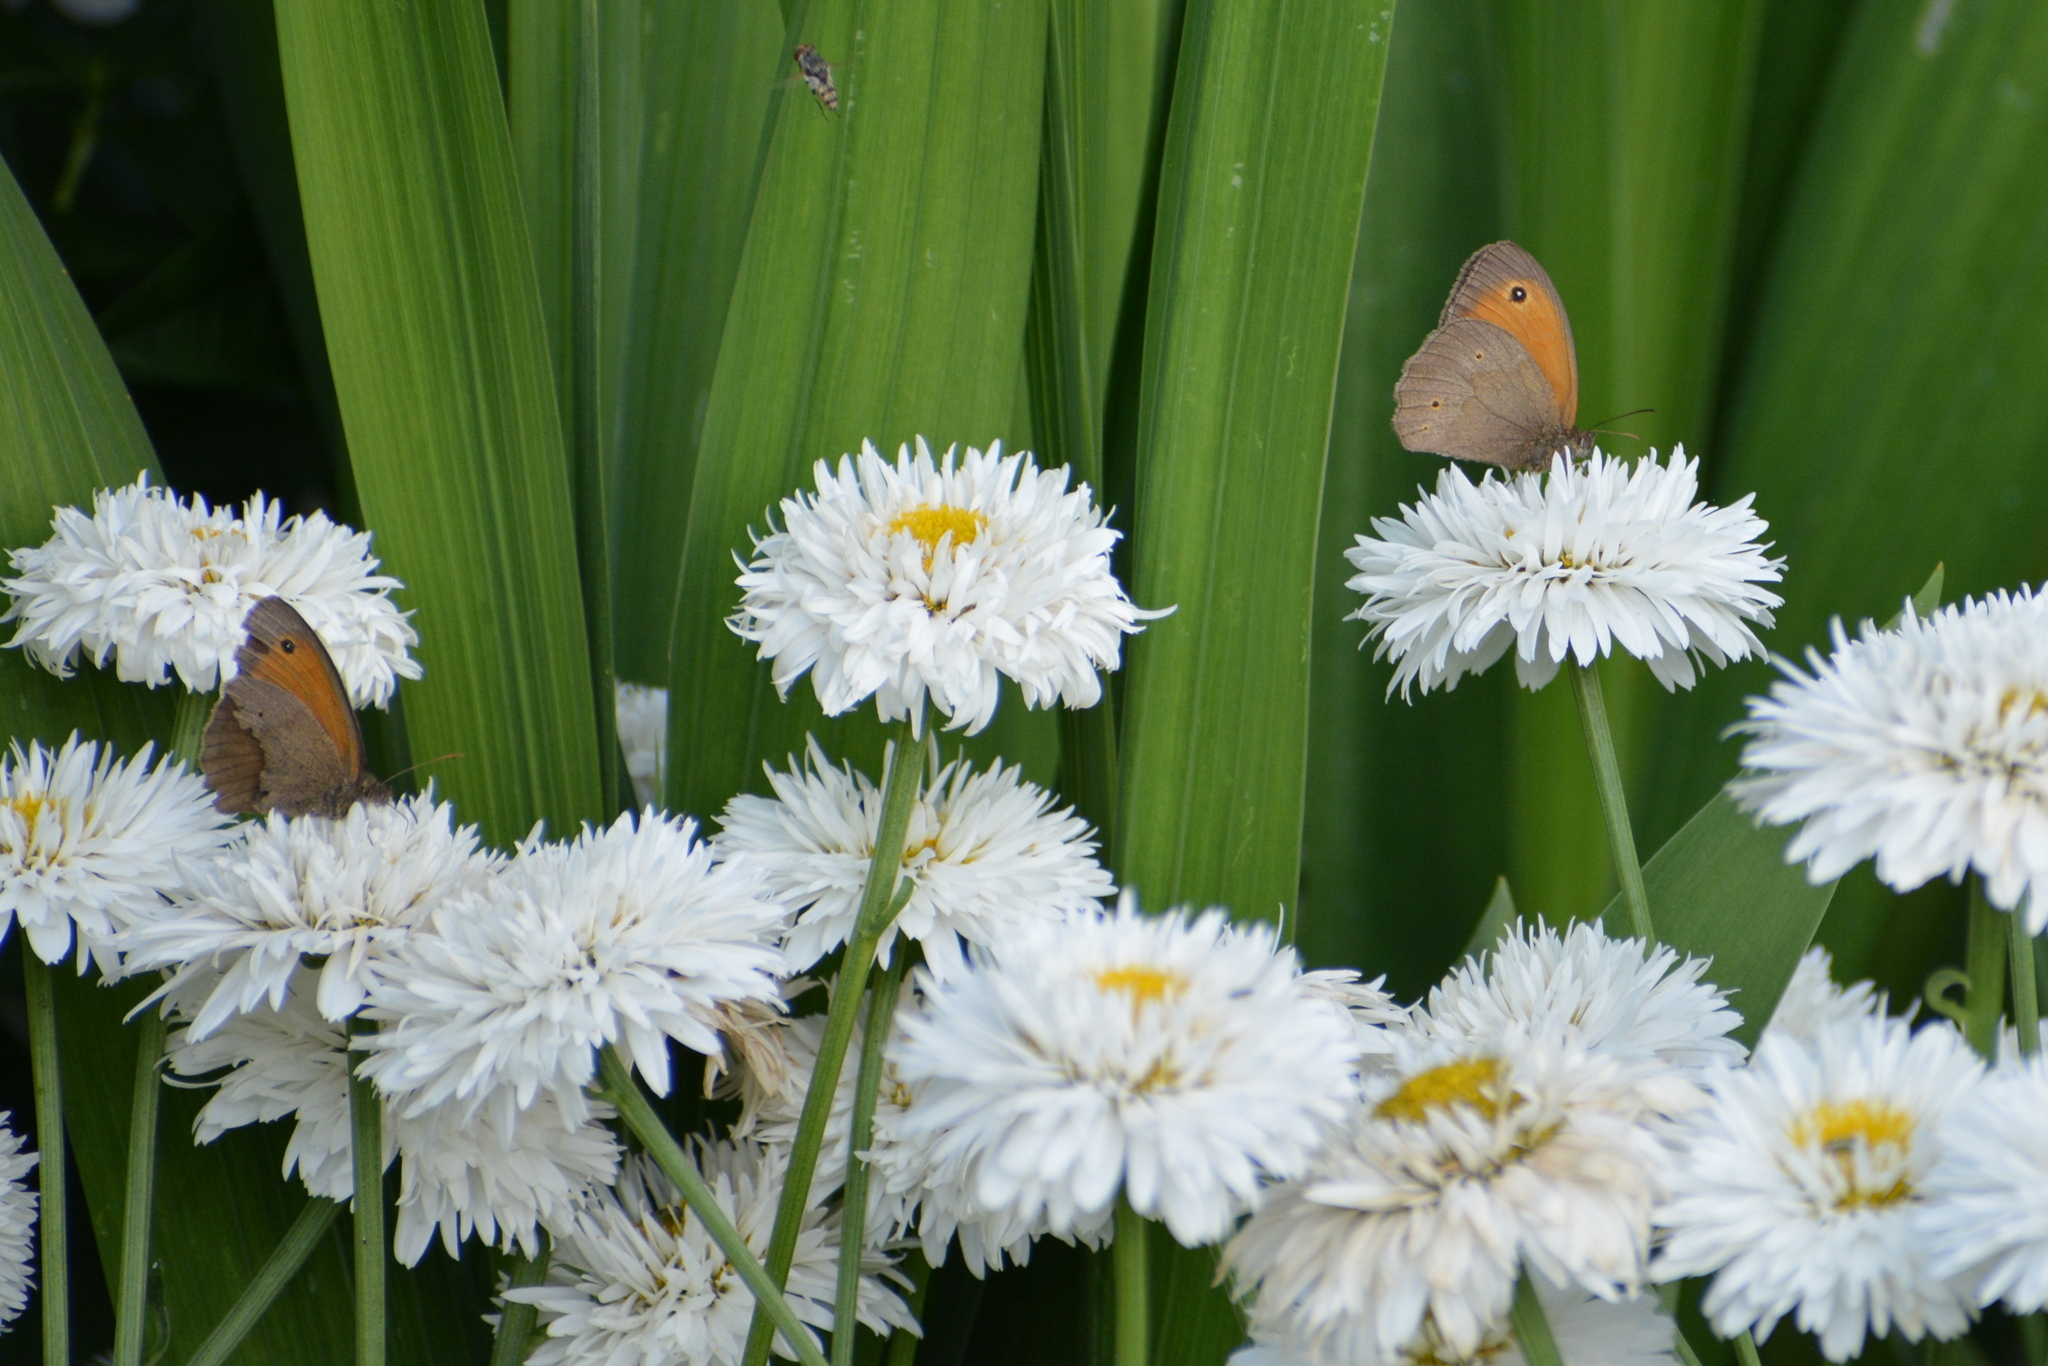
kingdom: Animalia
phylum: Arthropoda
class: Insecta
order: Lepidoptera
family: Nymphalidae
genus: Maniola
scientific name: Maniola jurtina
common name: Meadow brown
